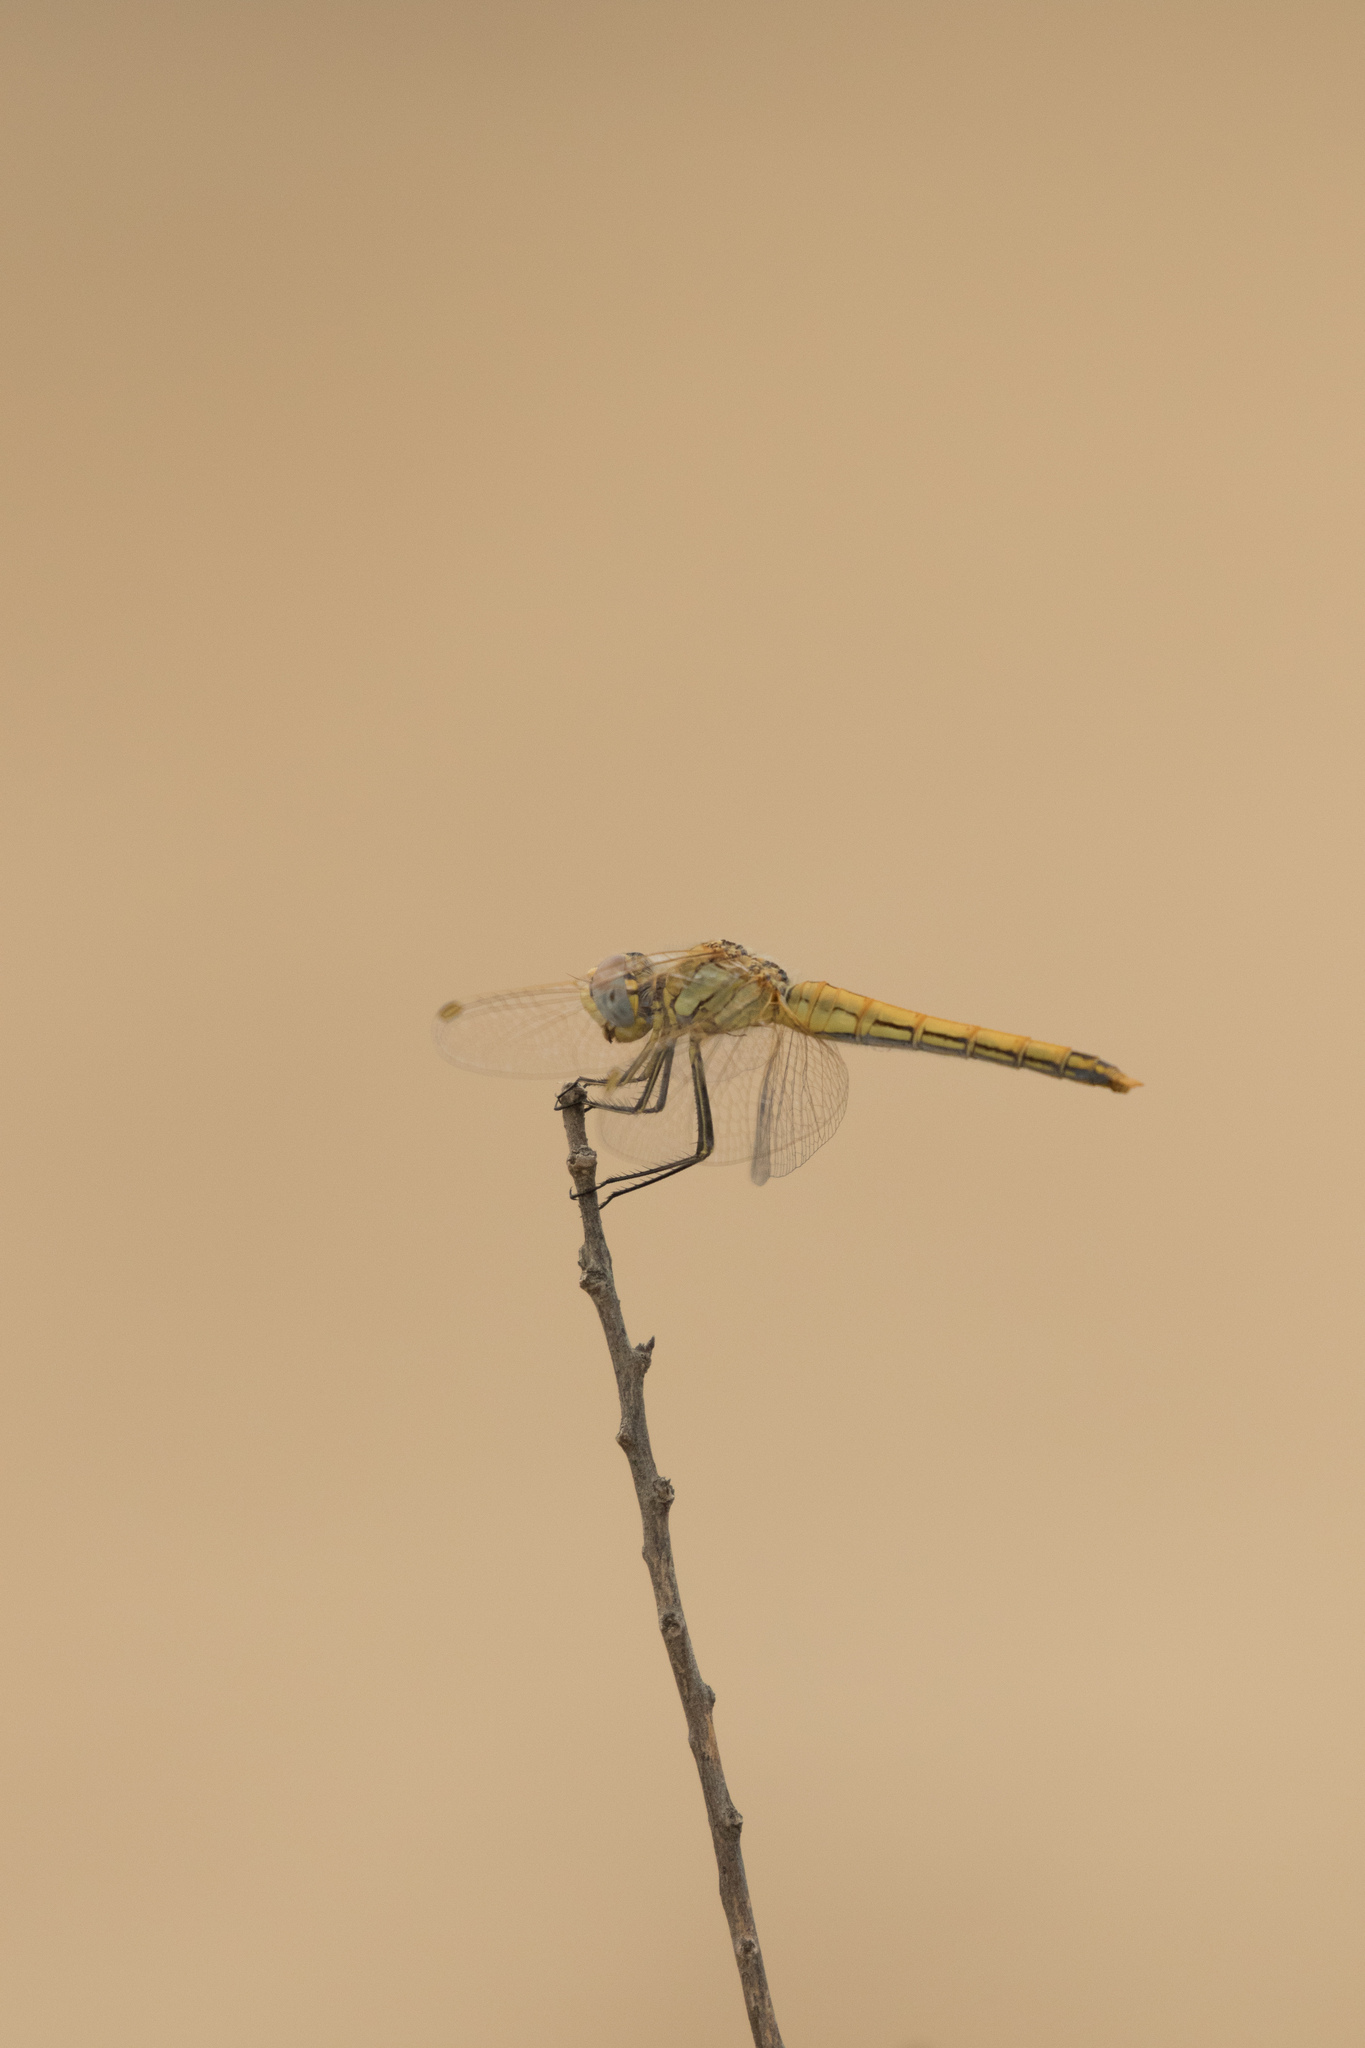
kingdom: Animalia
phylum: Arthropoda
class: Insecta
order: Odonata
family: Libellulidae
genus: Sympetrum
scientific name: Sympetrum fonscolombii
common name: Red-veined darter
